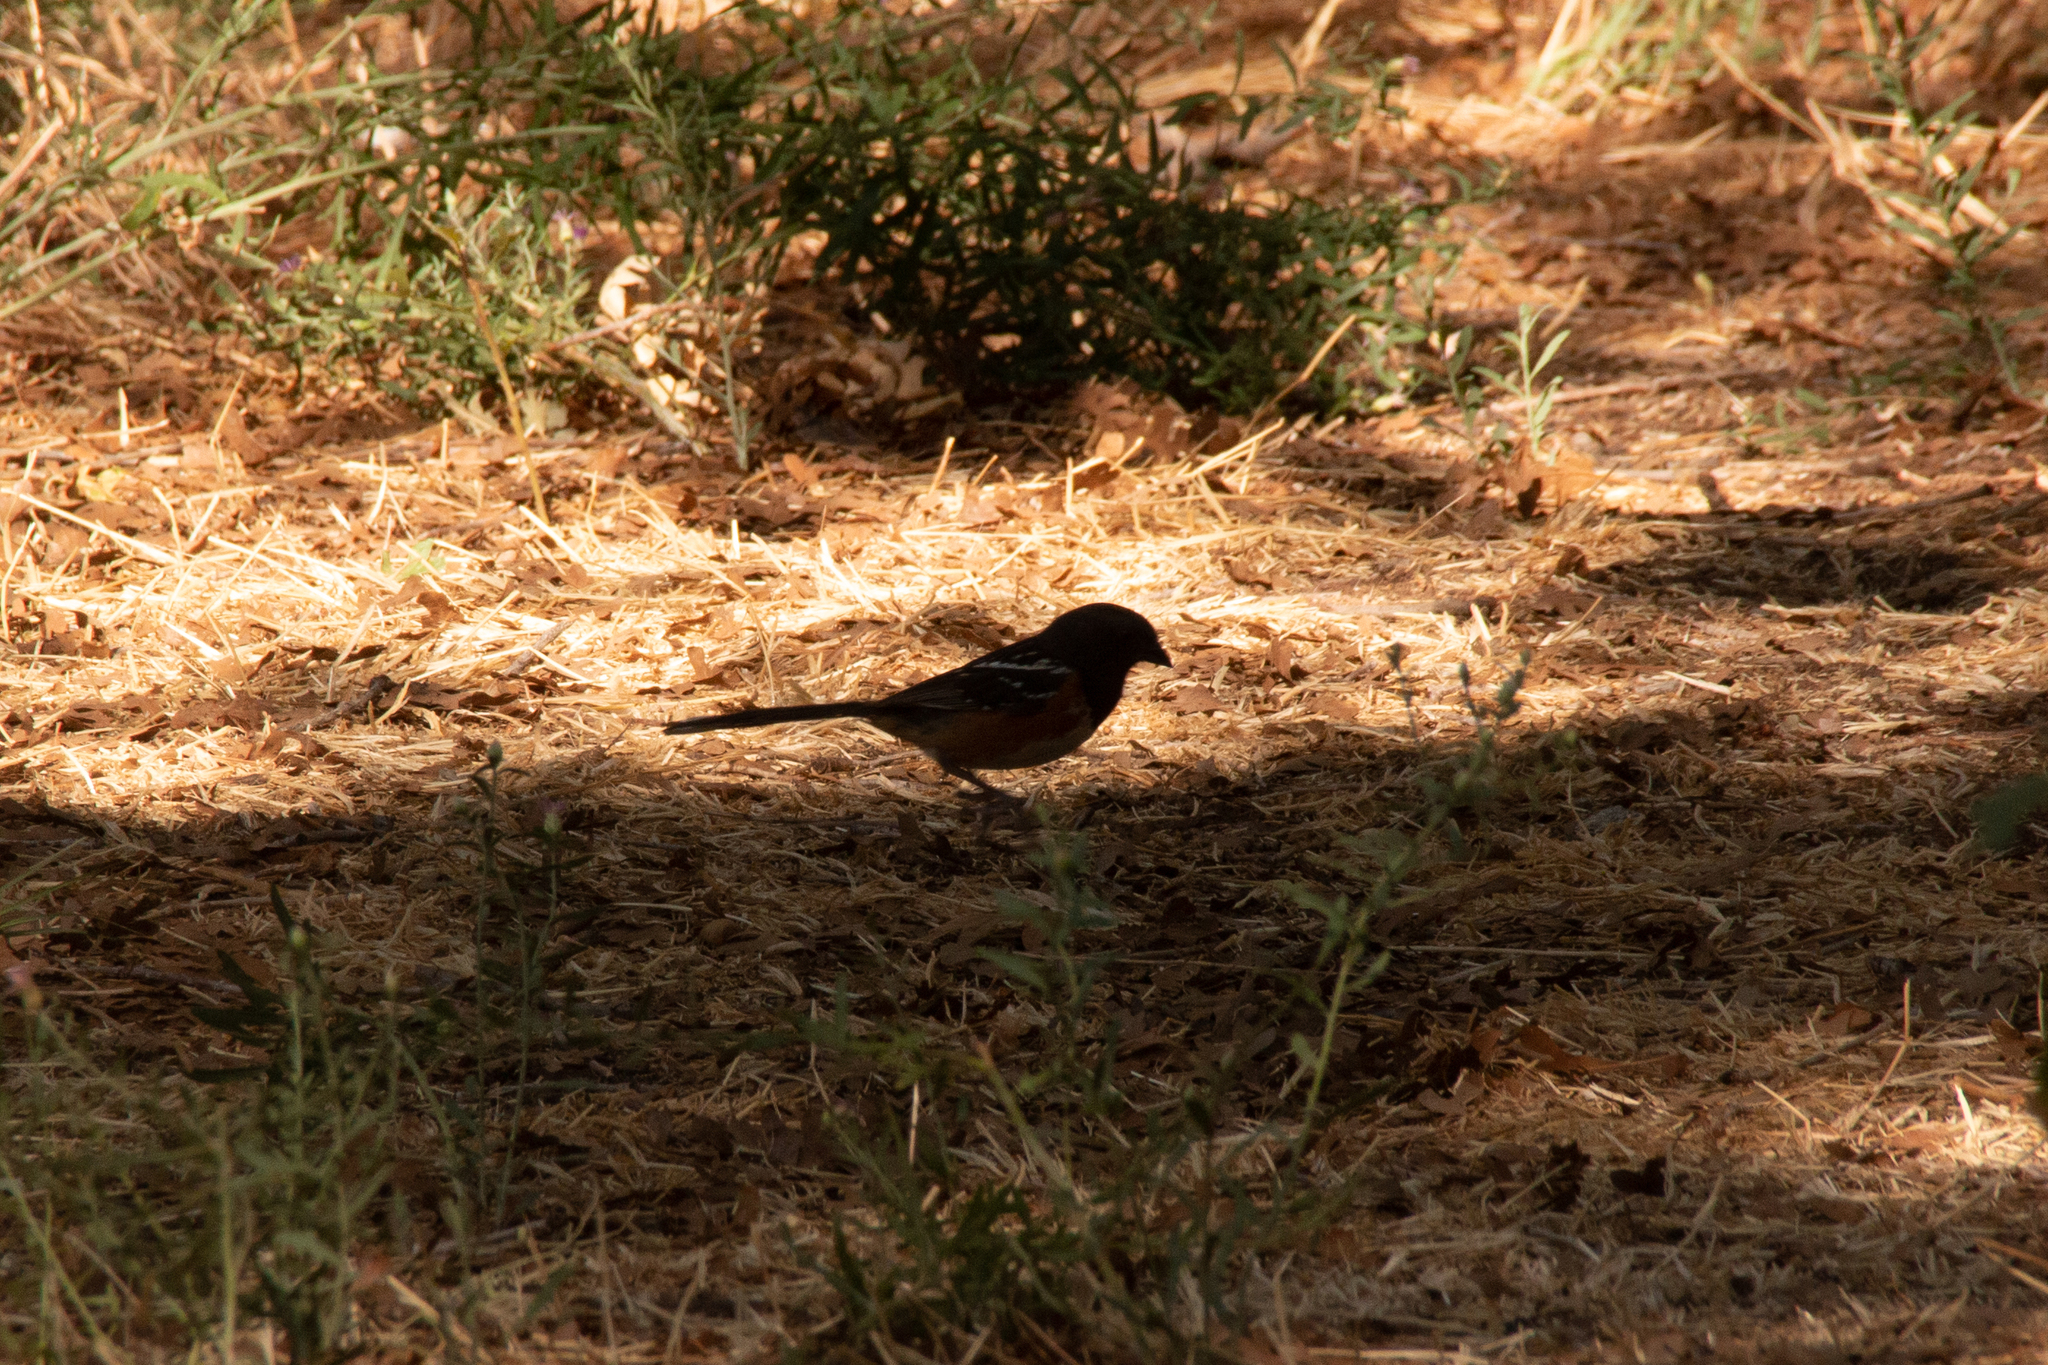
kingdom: Animalia
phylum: Chordata
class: Aves
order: Passeriformes
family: Passerellidae
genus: Pipilo
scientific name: Pipilo maculatus
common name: Spotted towhee
